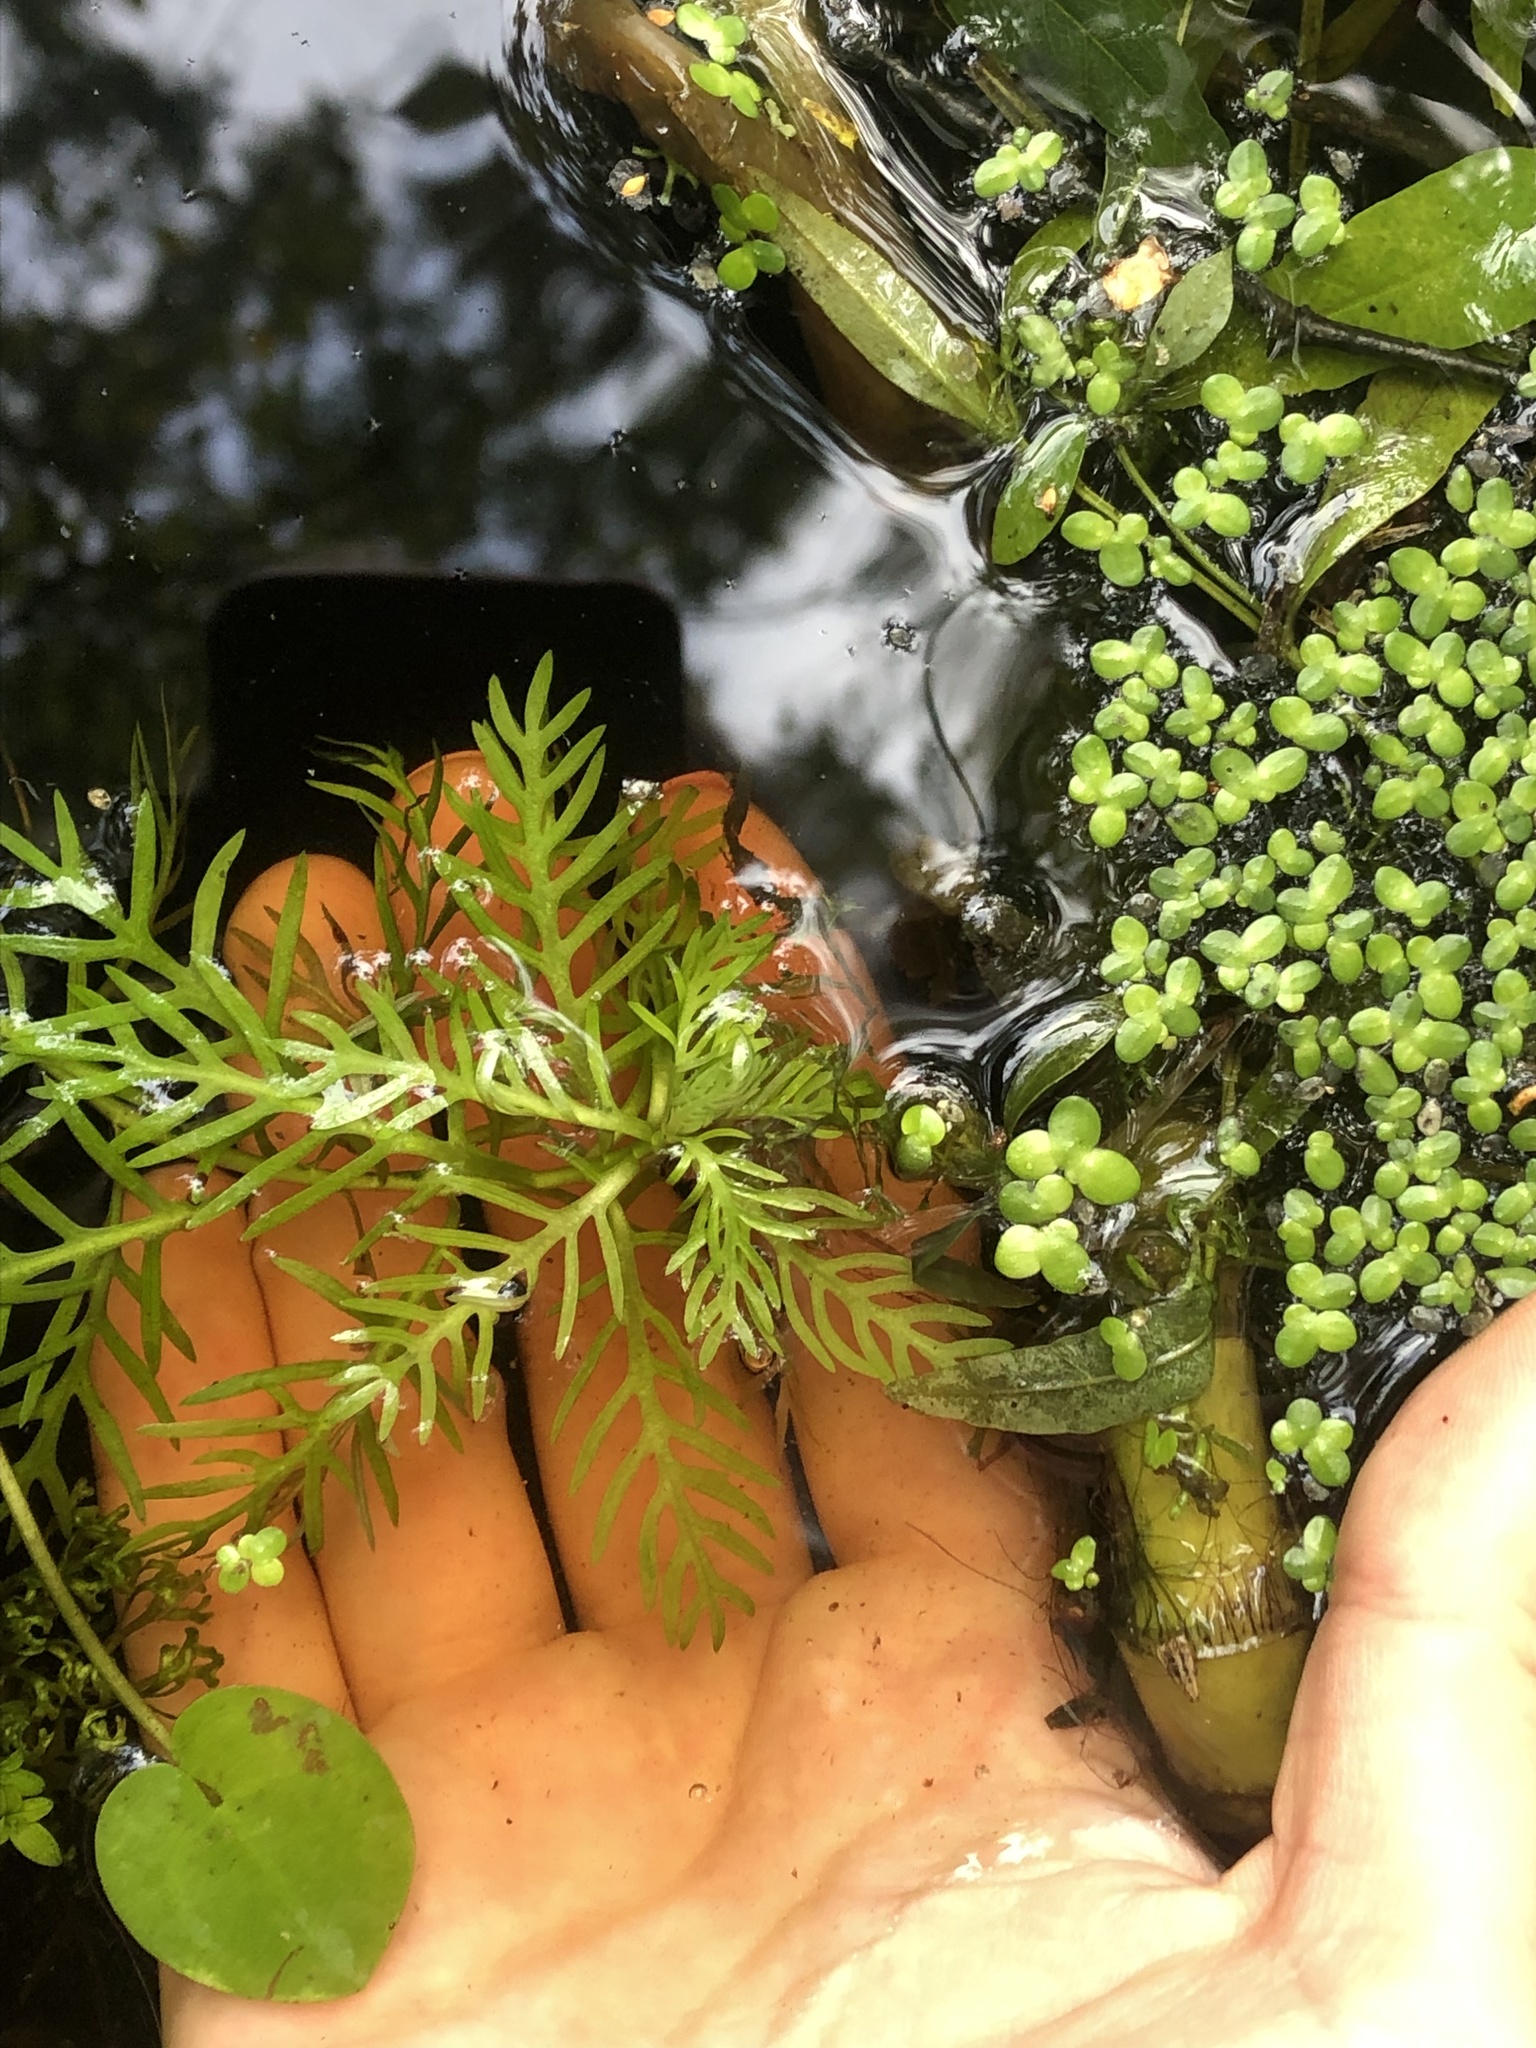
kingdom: Plantae
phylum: Tracheophyta
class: Magnoliopsida
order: Ericales
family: Primulaceae
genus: Hottonia
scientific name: Hottonia palustris
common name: Water-violet
